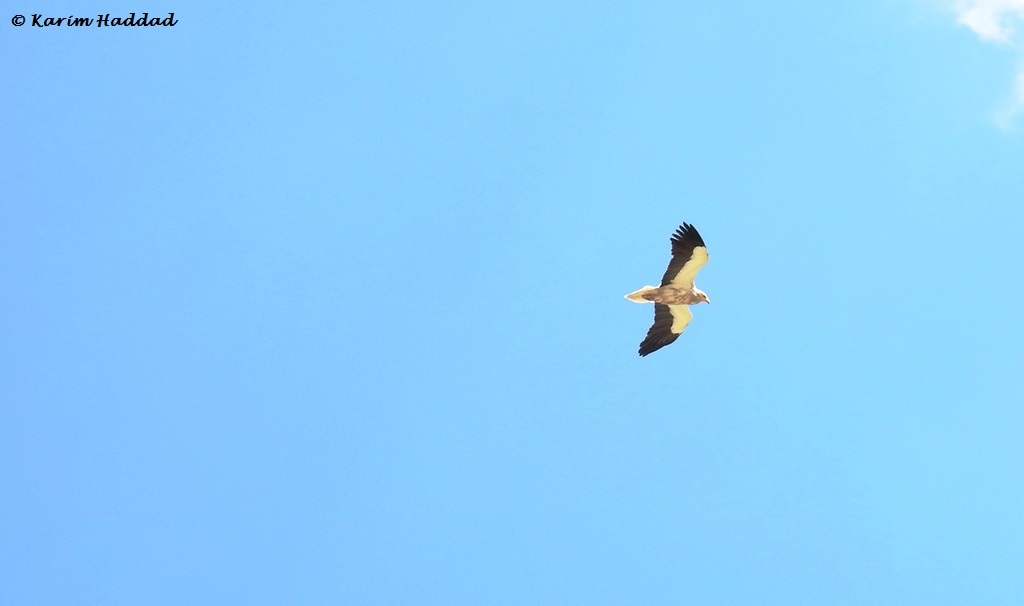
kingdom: Animalia
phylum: Chordata
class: Aves
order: Accipitriformes
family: Accipitridae
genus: Neophron
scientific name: Neophron percnopterus
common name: Egyptian vulture
